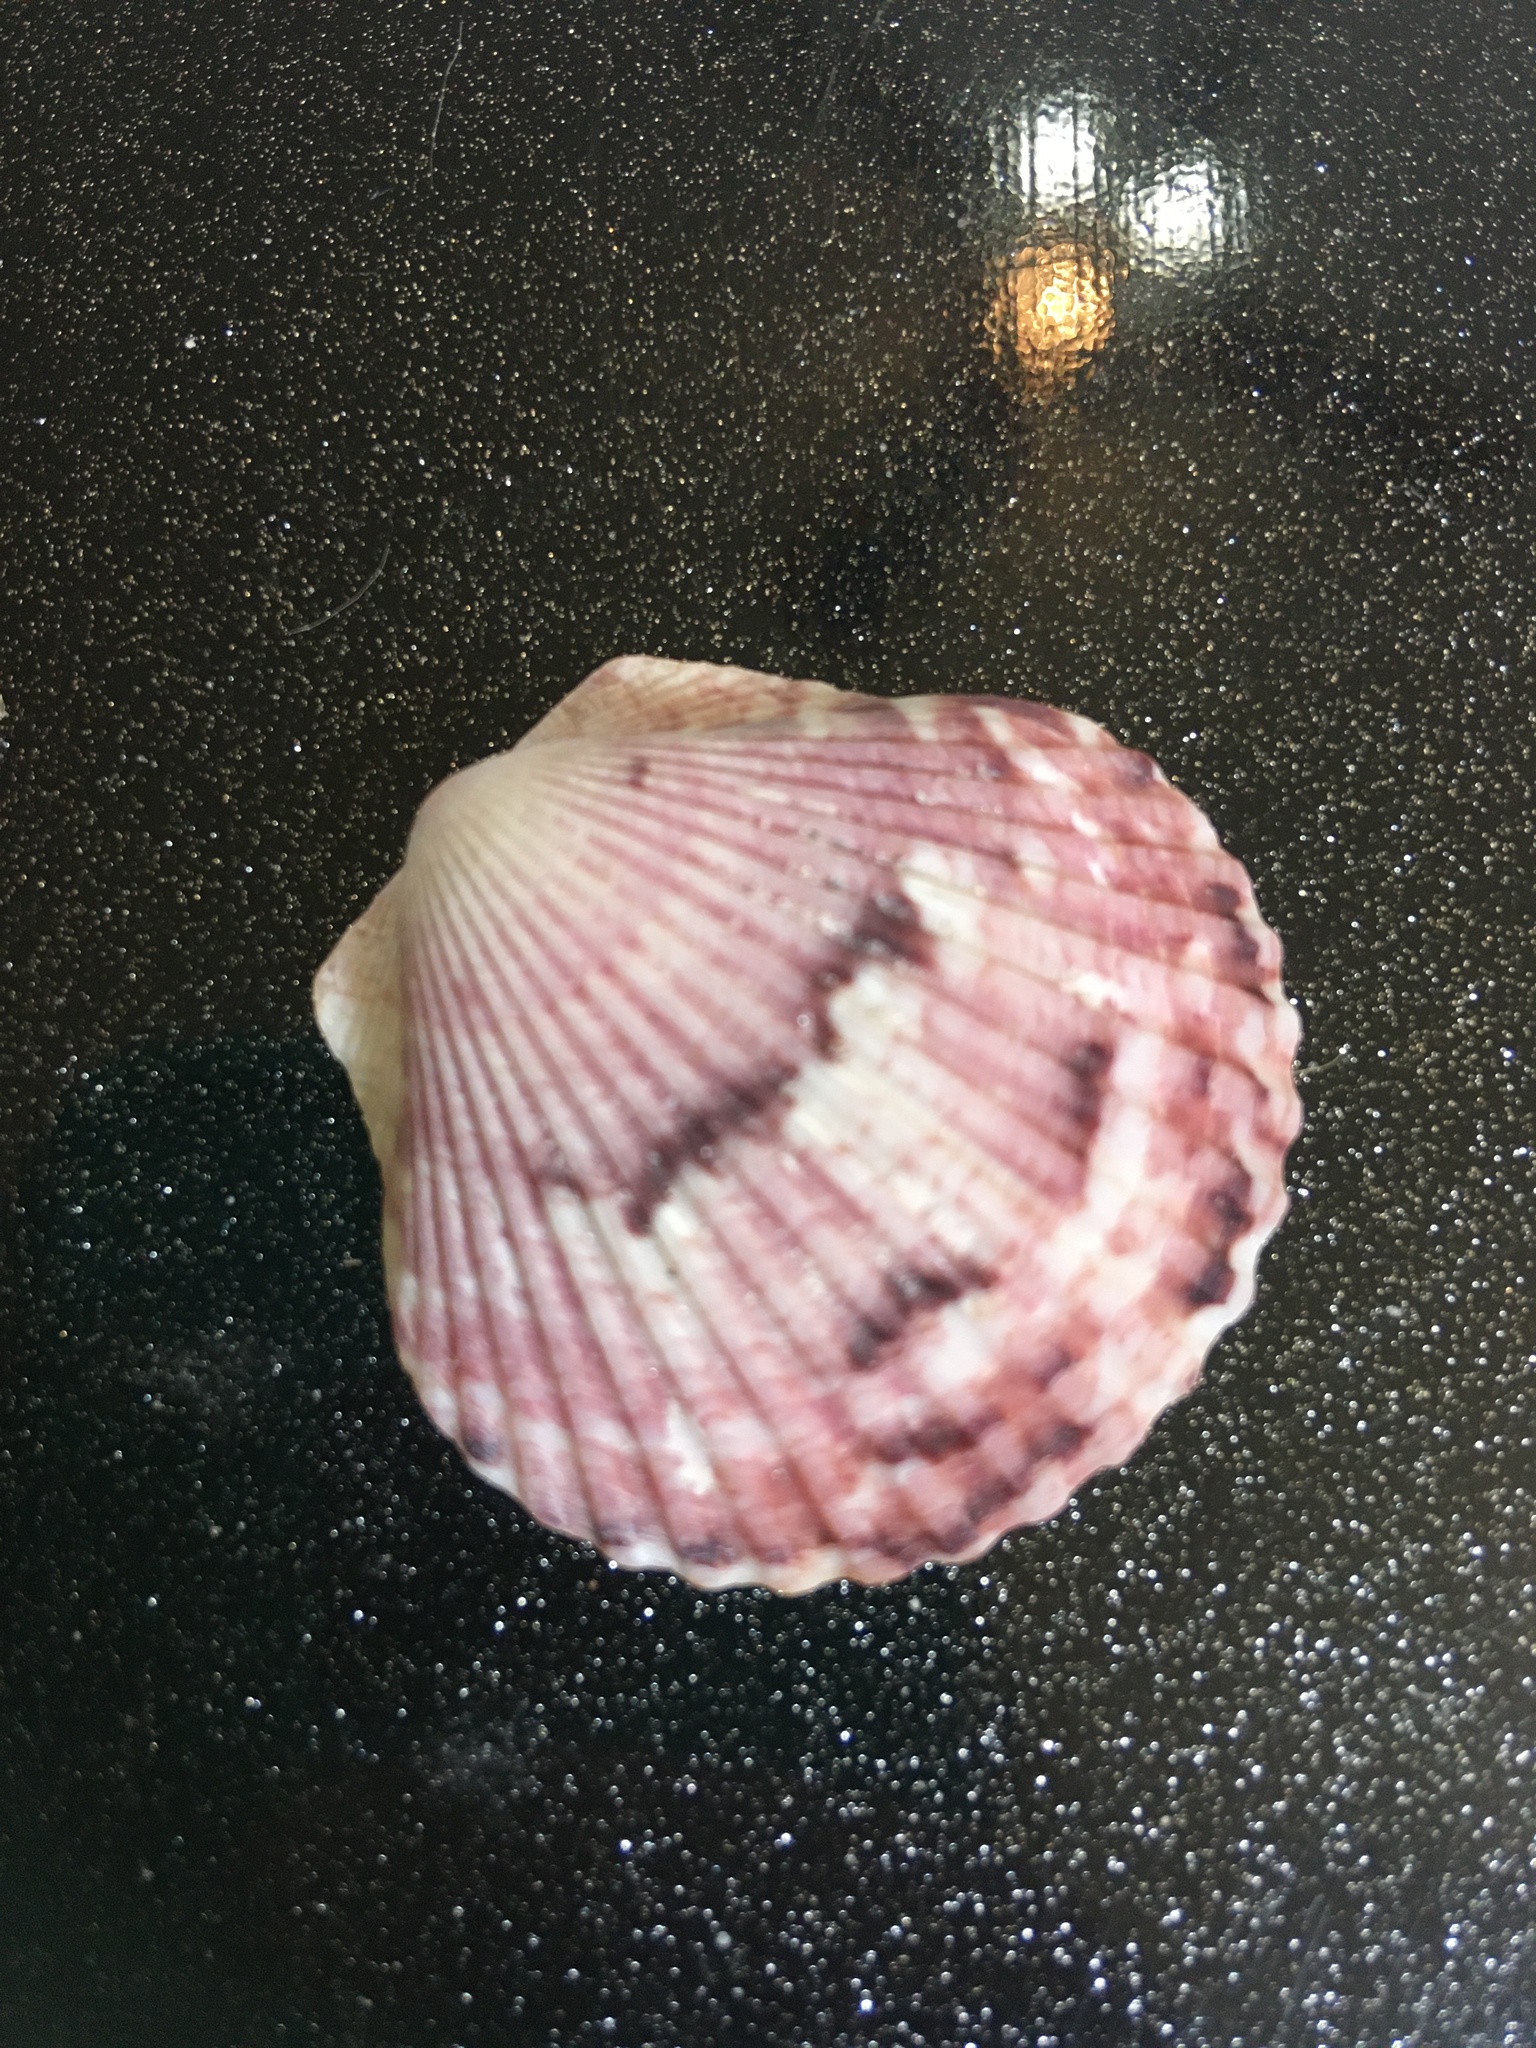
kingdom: Animalia
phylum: Mollusca
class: Bivalvia
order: Pectinida
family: Pectinidae
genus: Argopecten
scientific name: Argopecten gibbus
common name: Atlantic calico scallop
